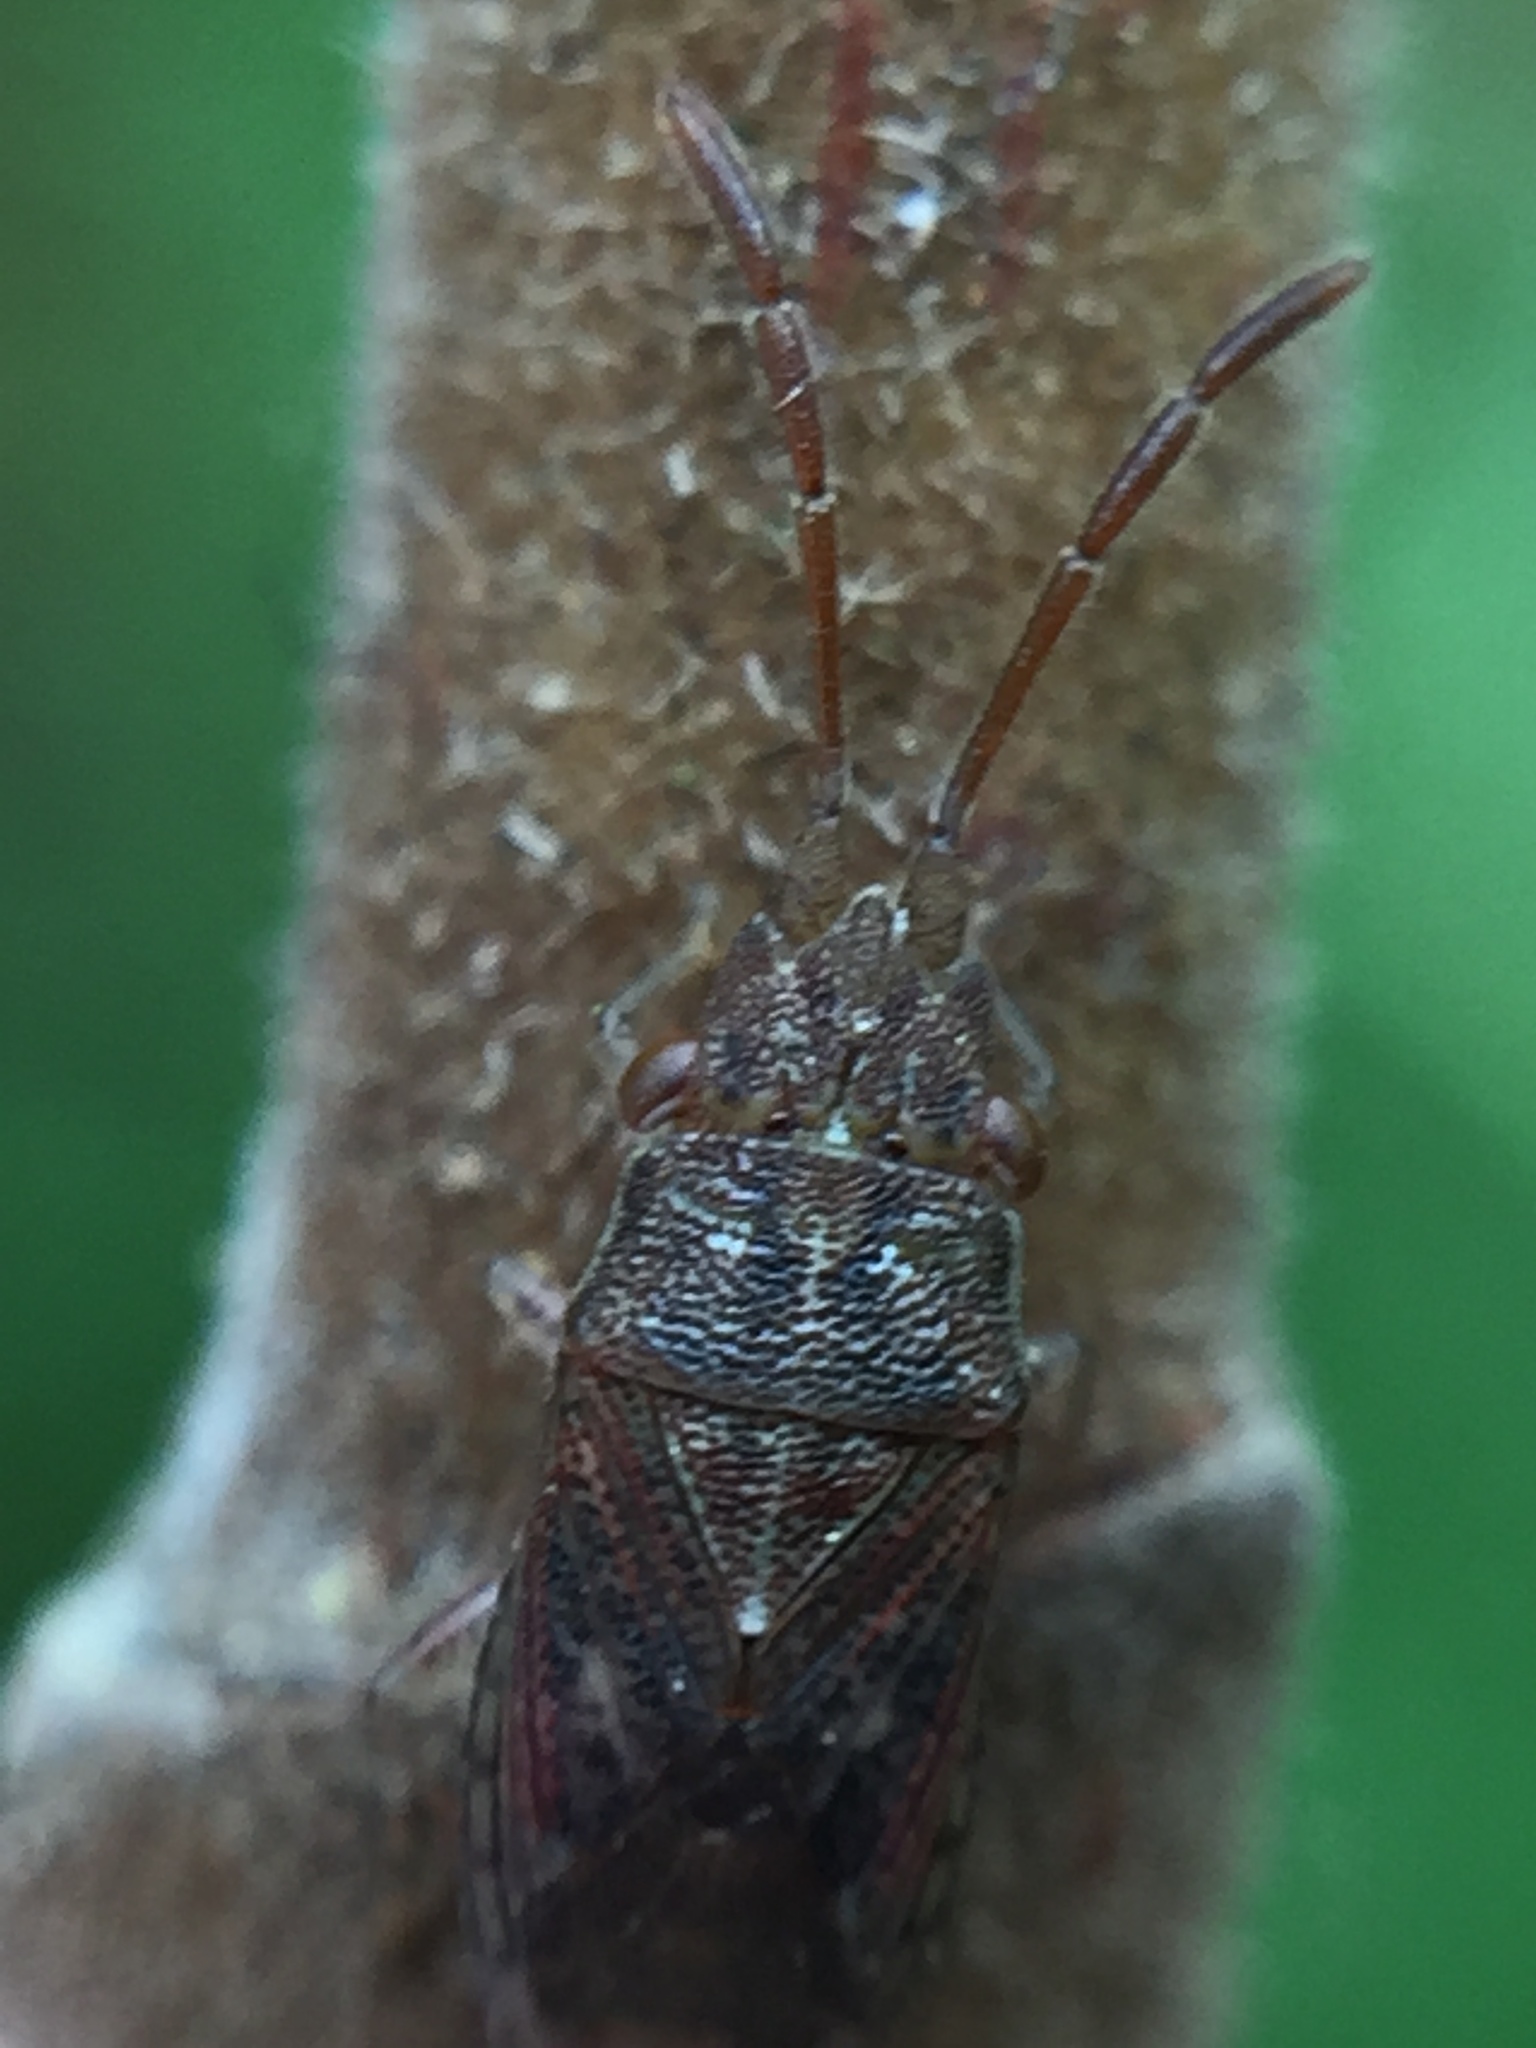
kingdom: Animalia
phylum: Arthropoda
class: Insecta
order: Hemiptera
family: Meschiidae
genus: Meschia
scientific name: Meschia barrowensis
